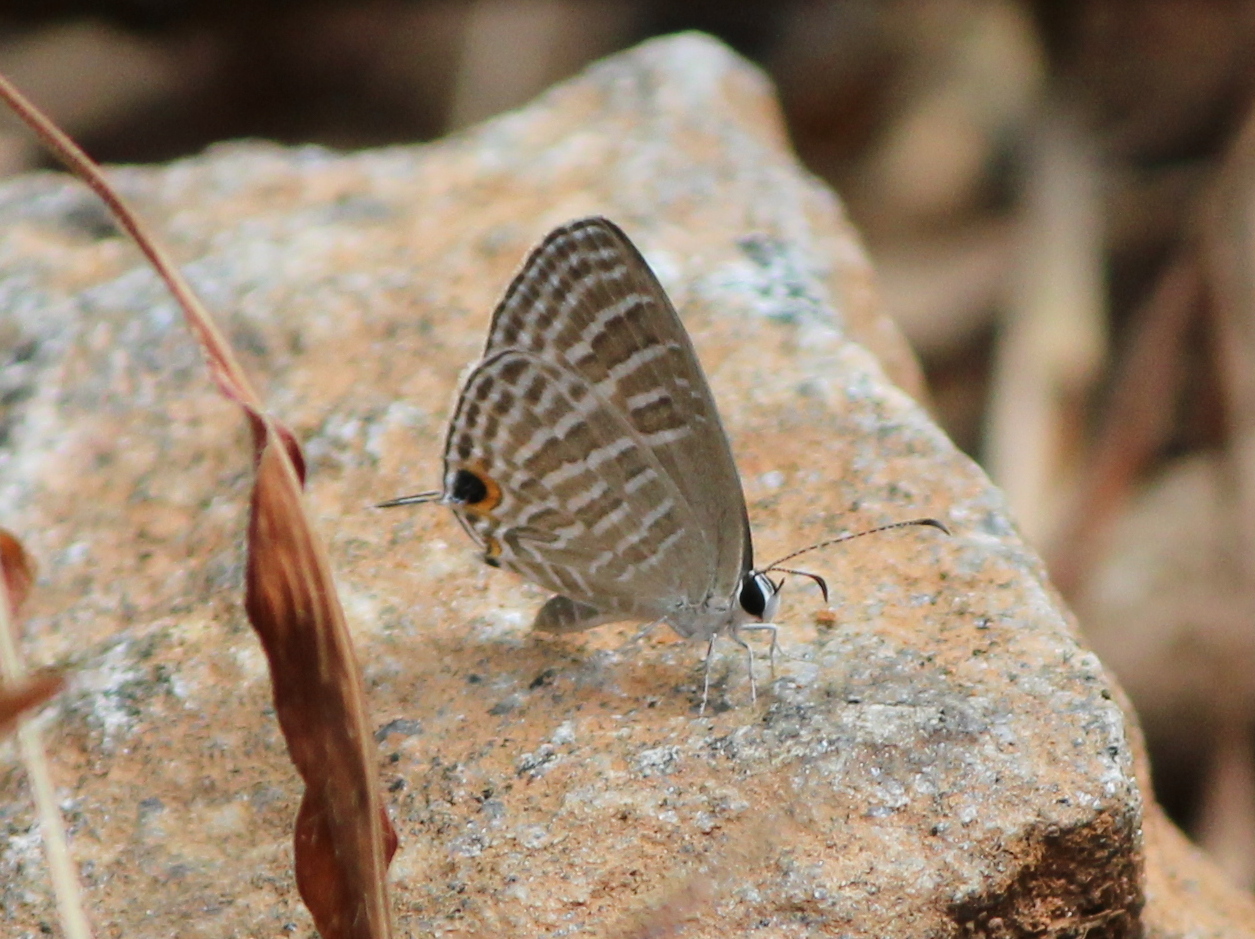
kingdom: Animalia
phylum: Arthropoda
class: Insecta
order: Lepidoptera
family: Lycaenidae
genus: Jamides
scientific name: Jamides celeno
